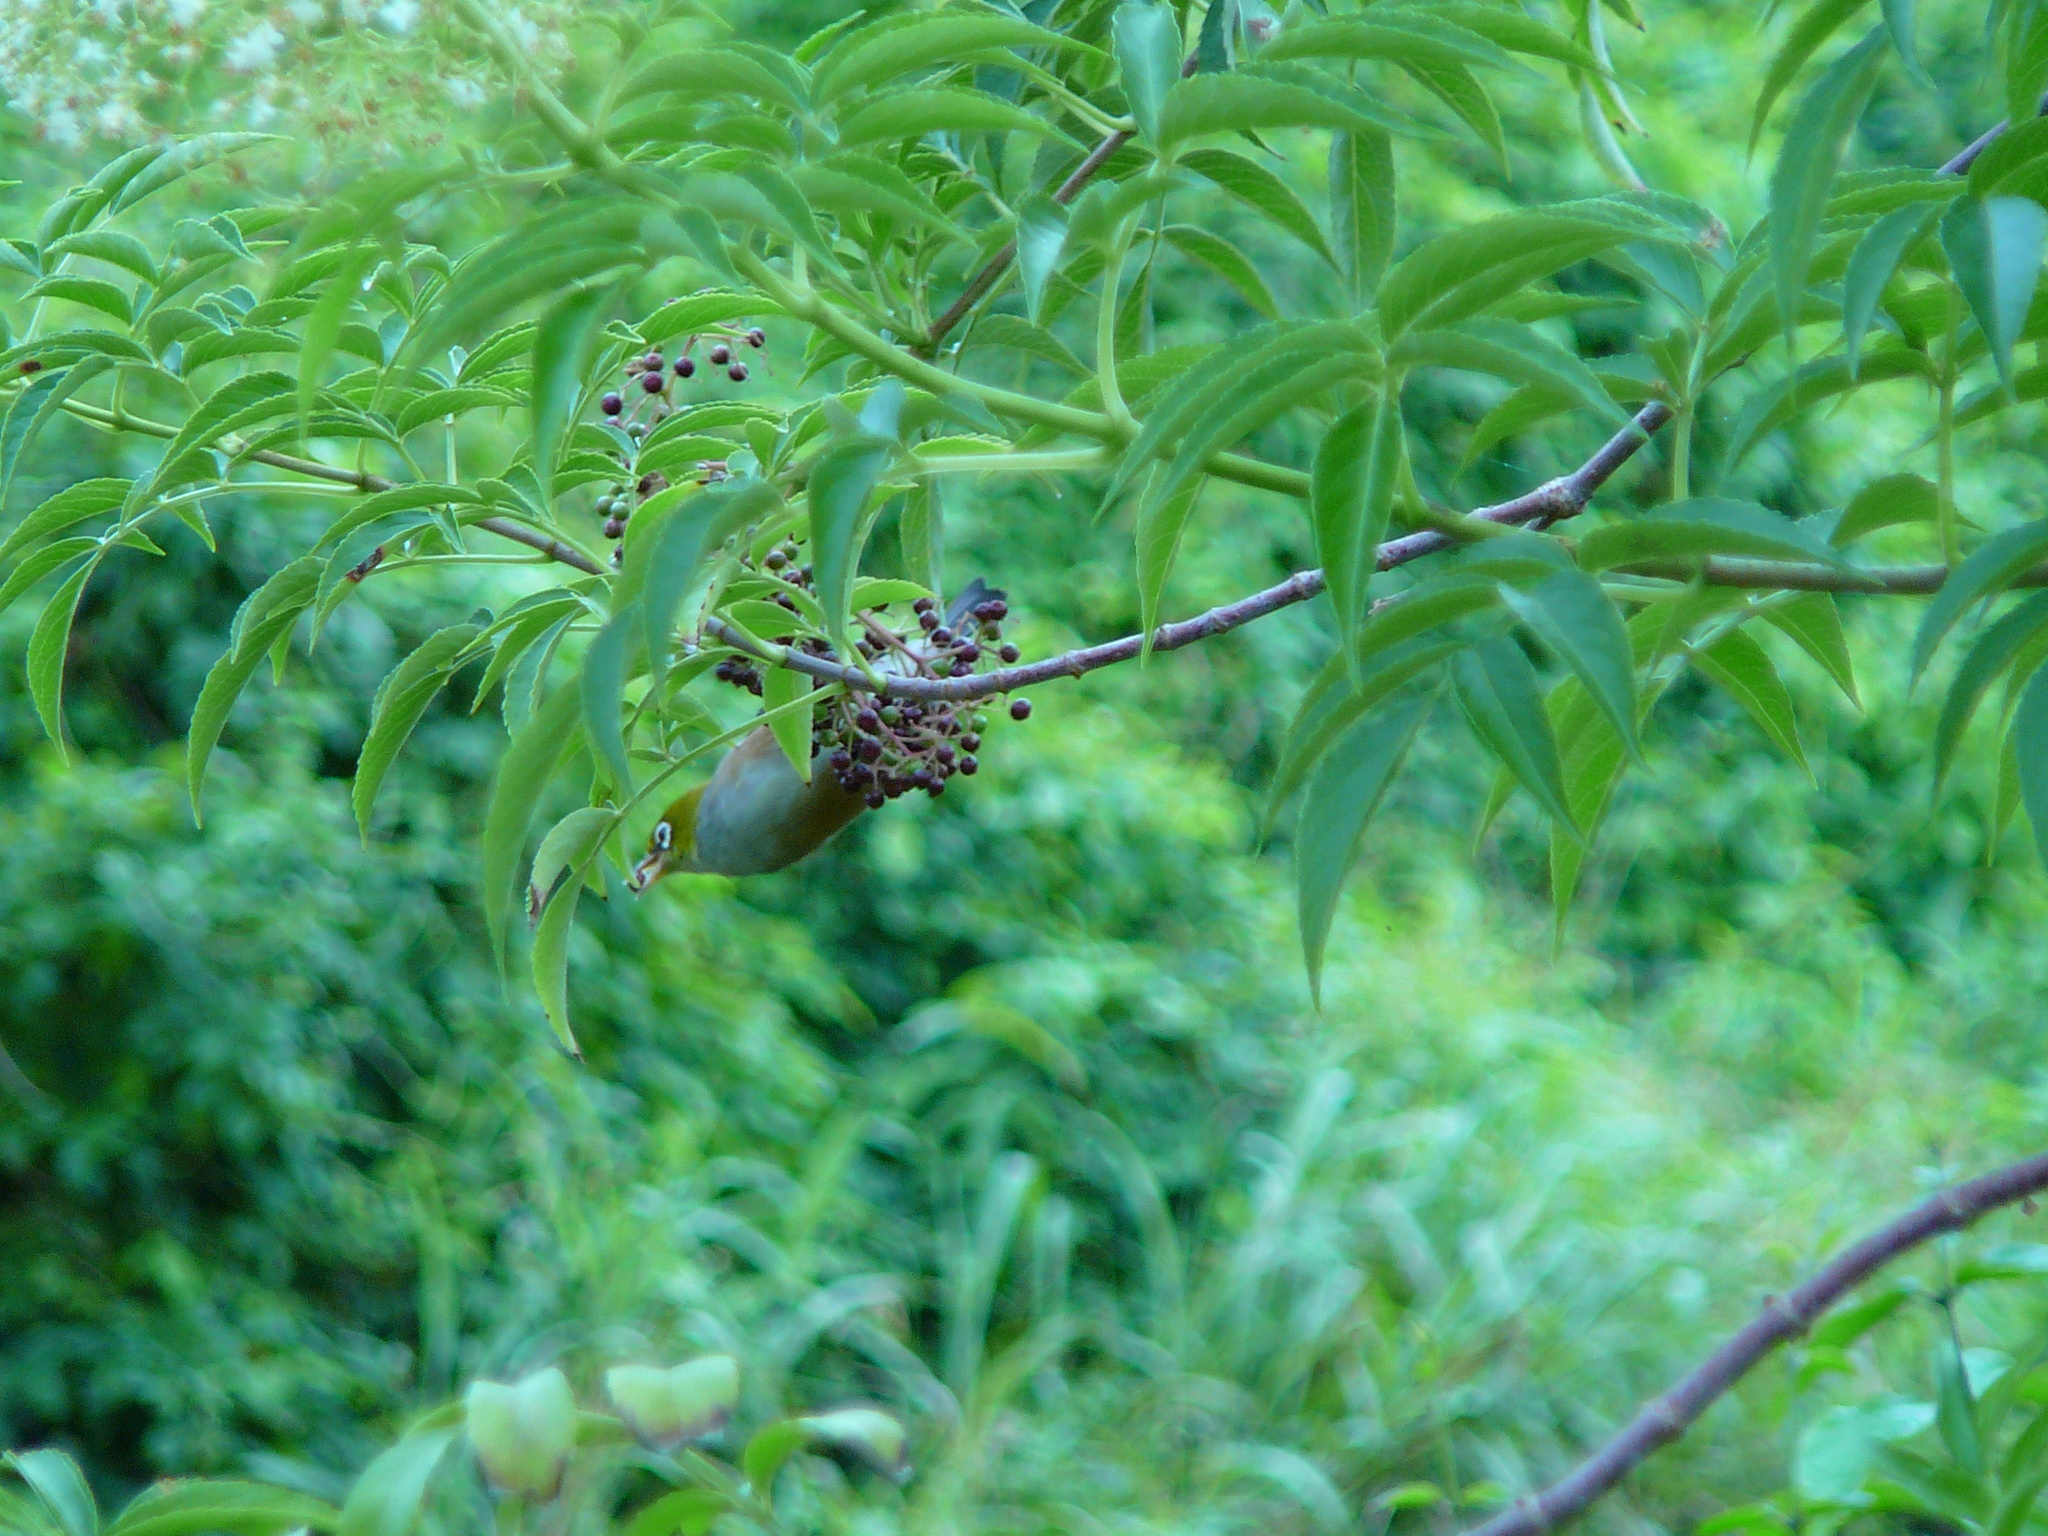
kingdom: Animalia
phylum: Chordata
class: Aves
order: Passeriformes
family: Zosteropidae
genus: Zosterops
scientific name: Zosterops lateralis
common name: Silvereye
